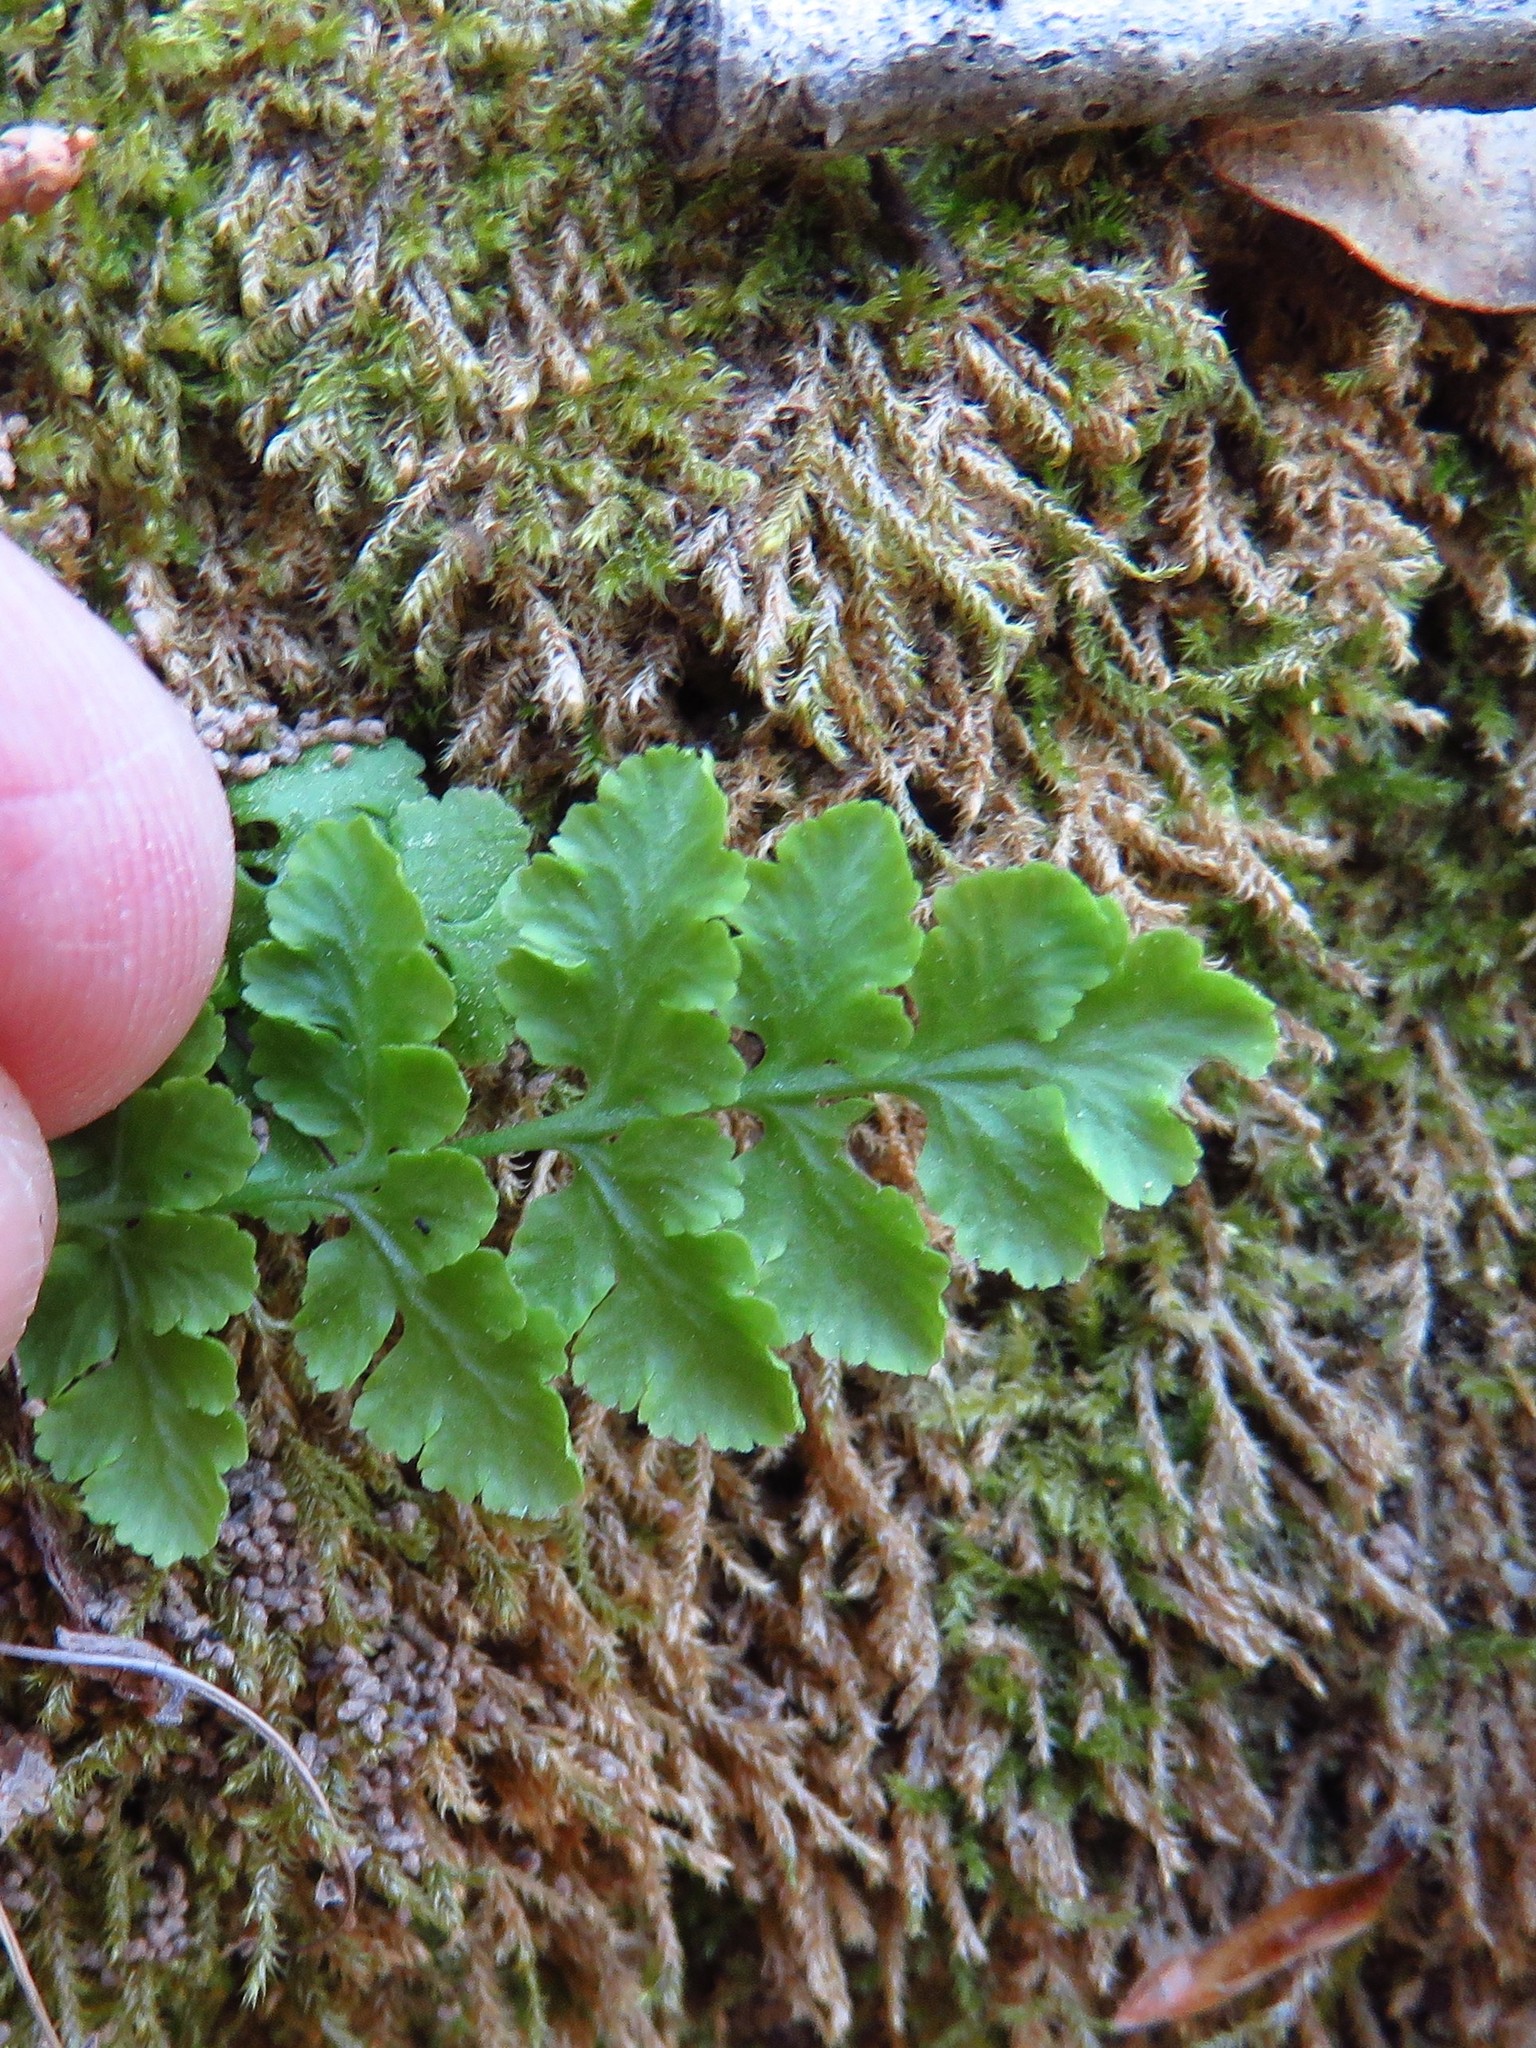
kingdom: Plantae
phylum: Tracheophyta
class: Polypodiopsida
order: Polypodiales
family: Woodsiaceae
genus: Physematium
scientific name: Physematium obtusum
